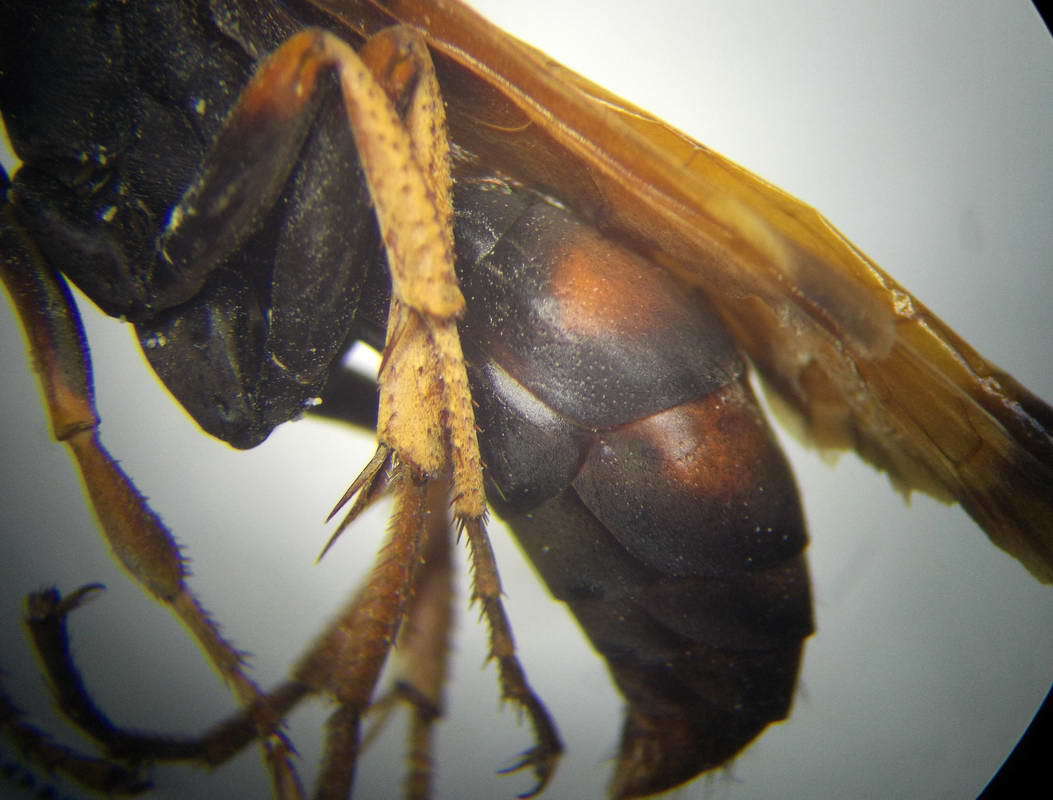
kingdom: Animalia
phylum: Arthropoda
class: Insecta
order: Hymenoptera
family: Pompilidae
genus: Cryptocheilus
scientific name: Cryptocheilus rubellus
